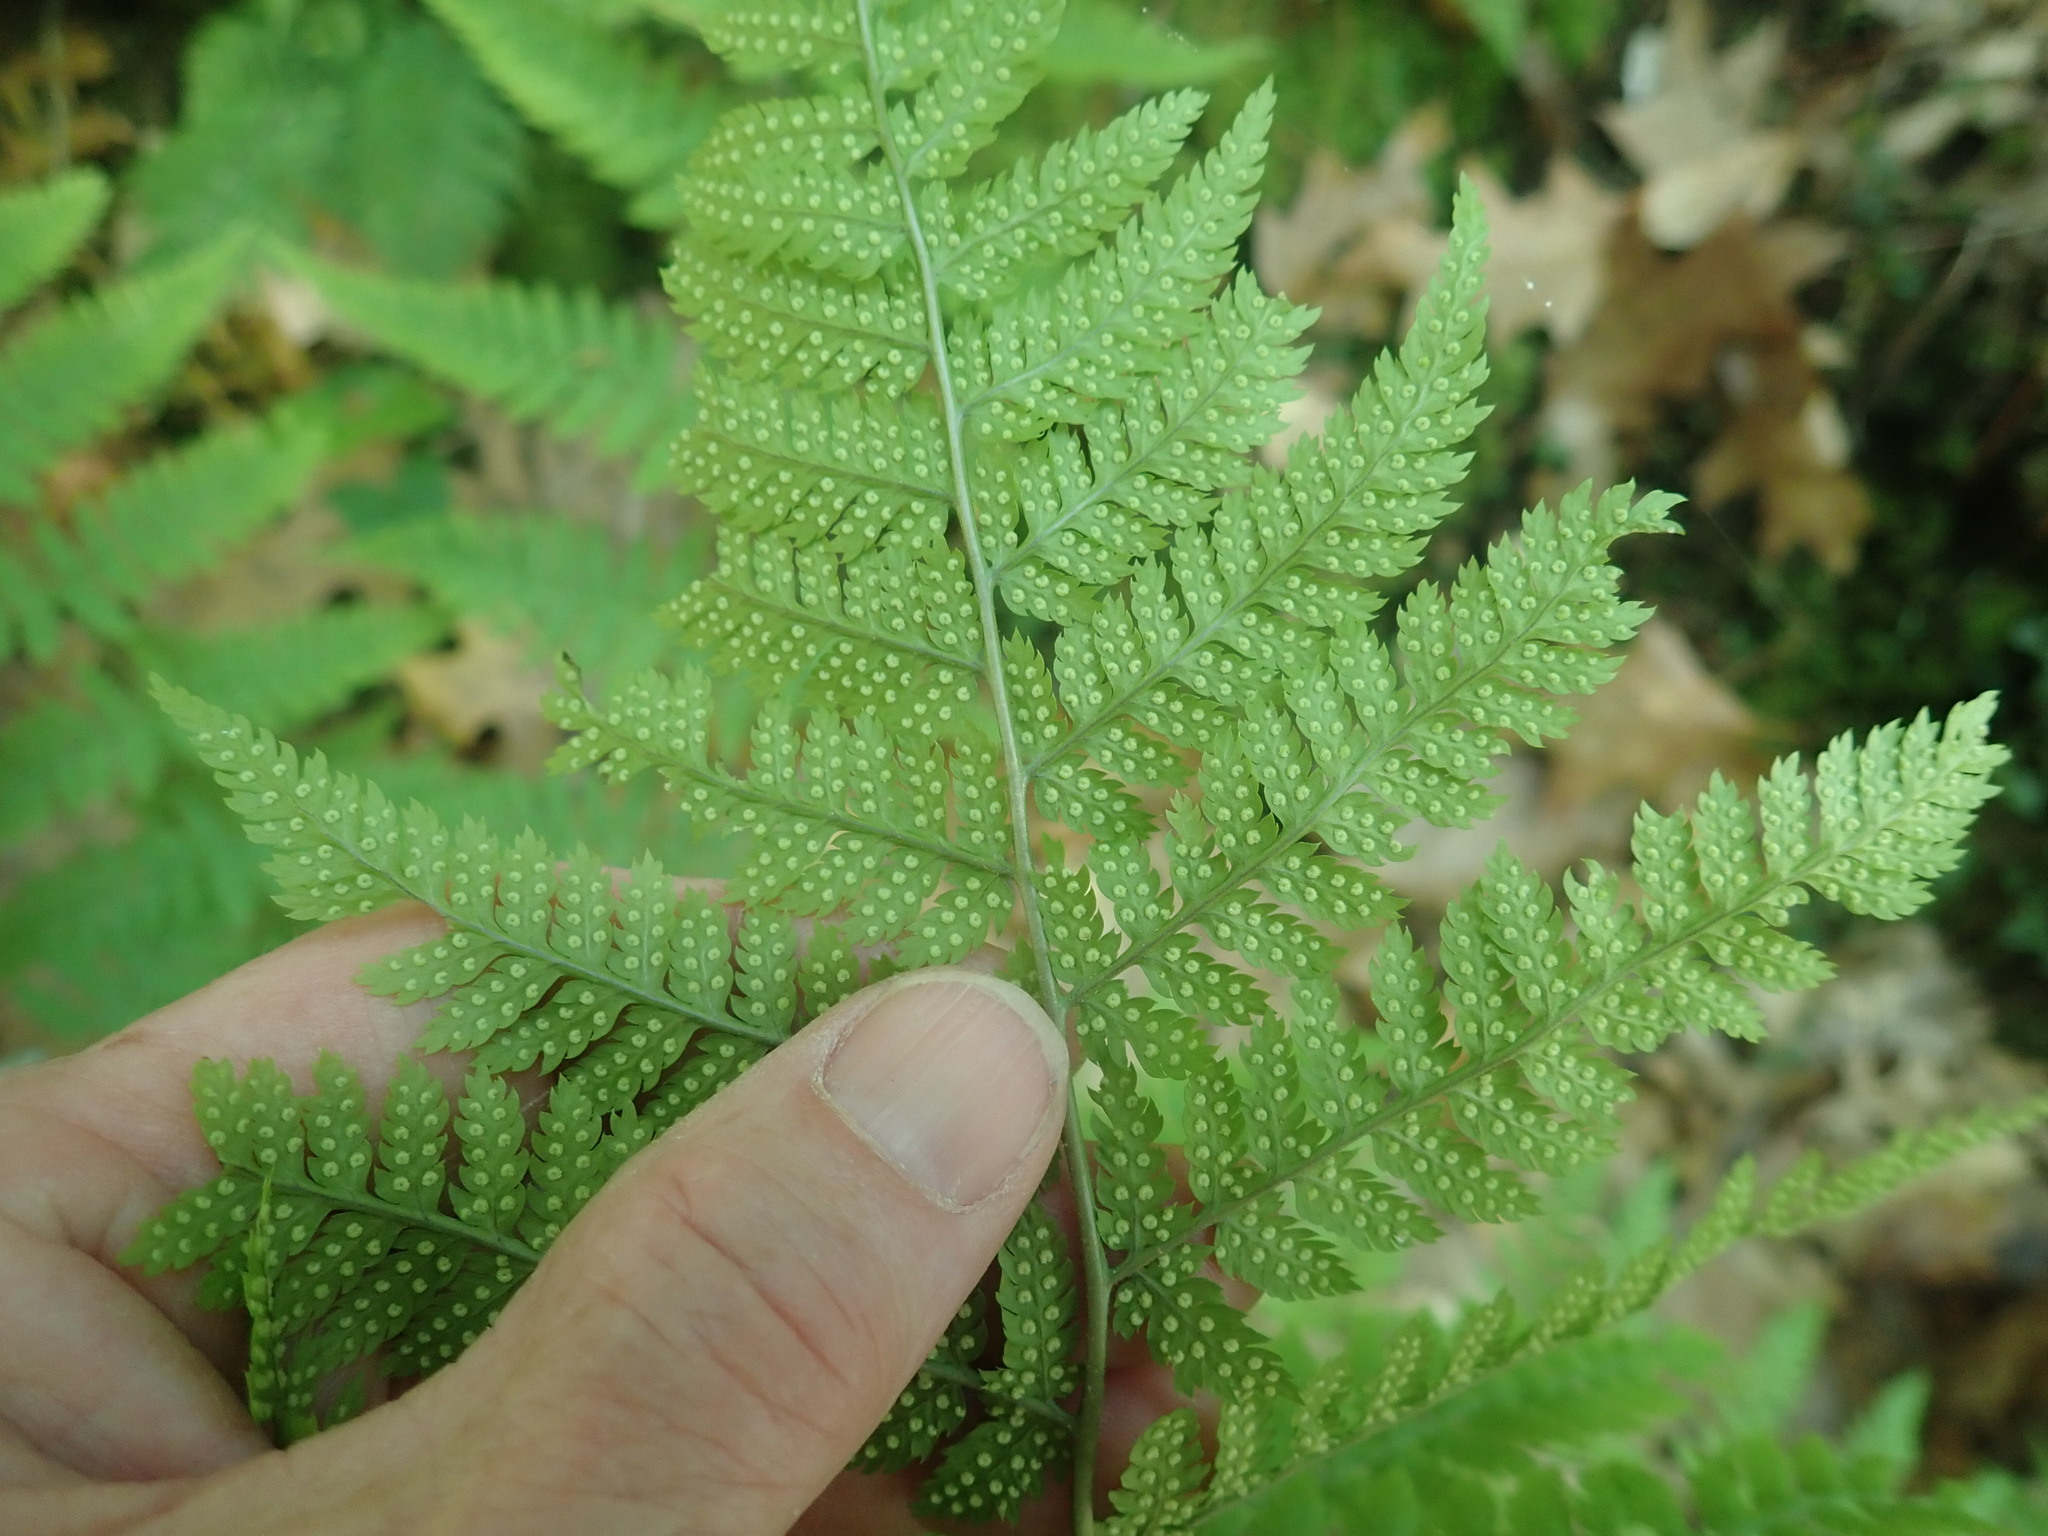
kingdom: Plantae
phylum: Tracheophyta
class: Polypodiopsida
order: Polypodiales
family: Dryopteridaceae
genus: Dryopteris
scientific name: Dryopteris intermedia
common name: Evergreen wood fern
